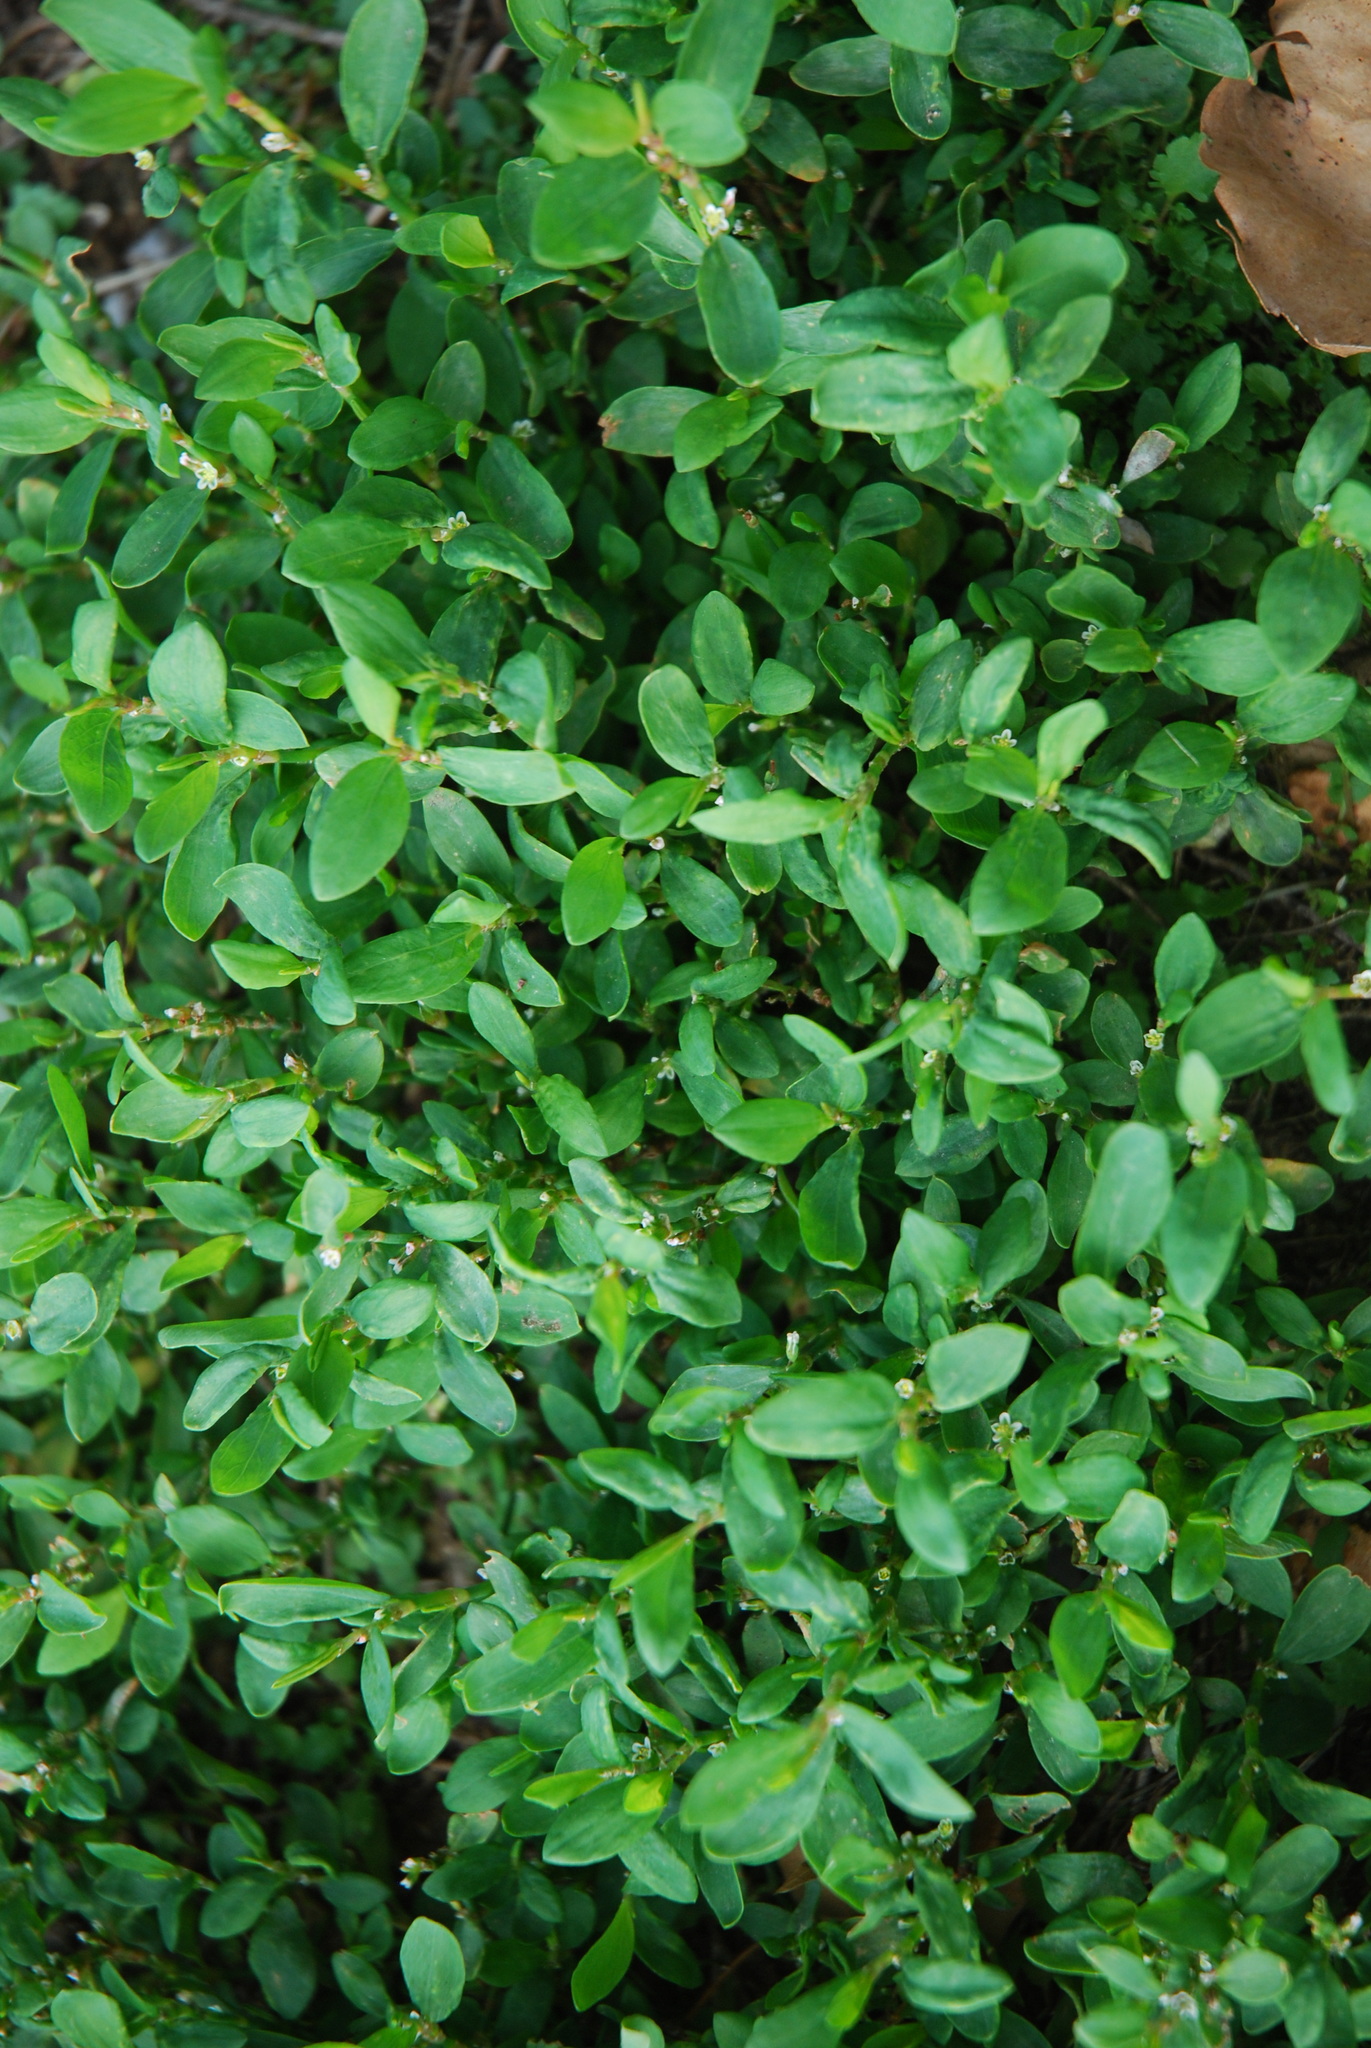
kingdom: Plantae
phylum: Tracheophyta
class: Magnoliopsida
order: Caryophyllales
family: Polygonaceae
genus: Polygonum
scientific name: Polygonum aviculare
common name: Prostrate knotweed
